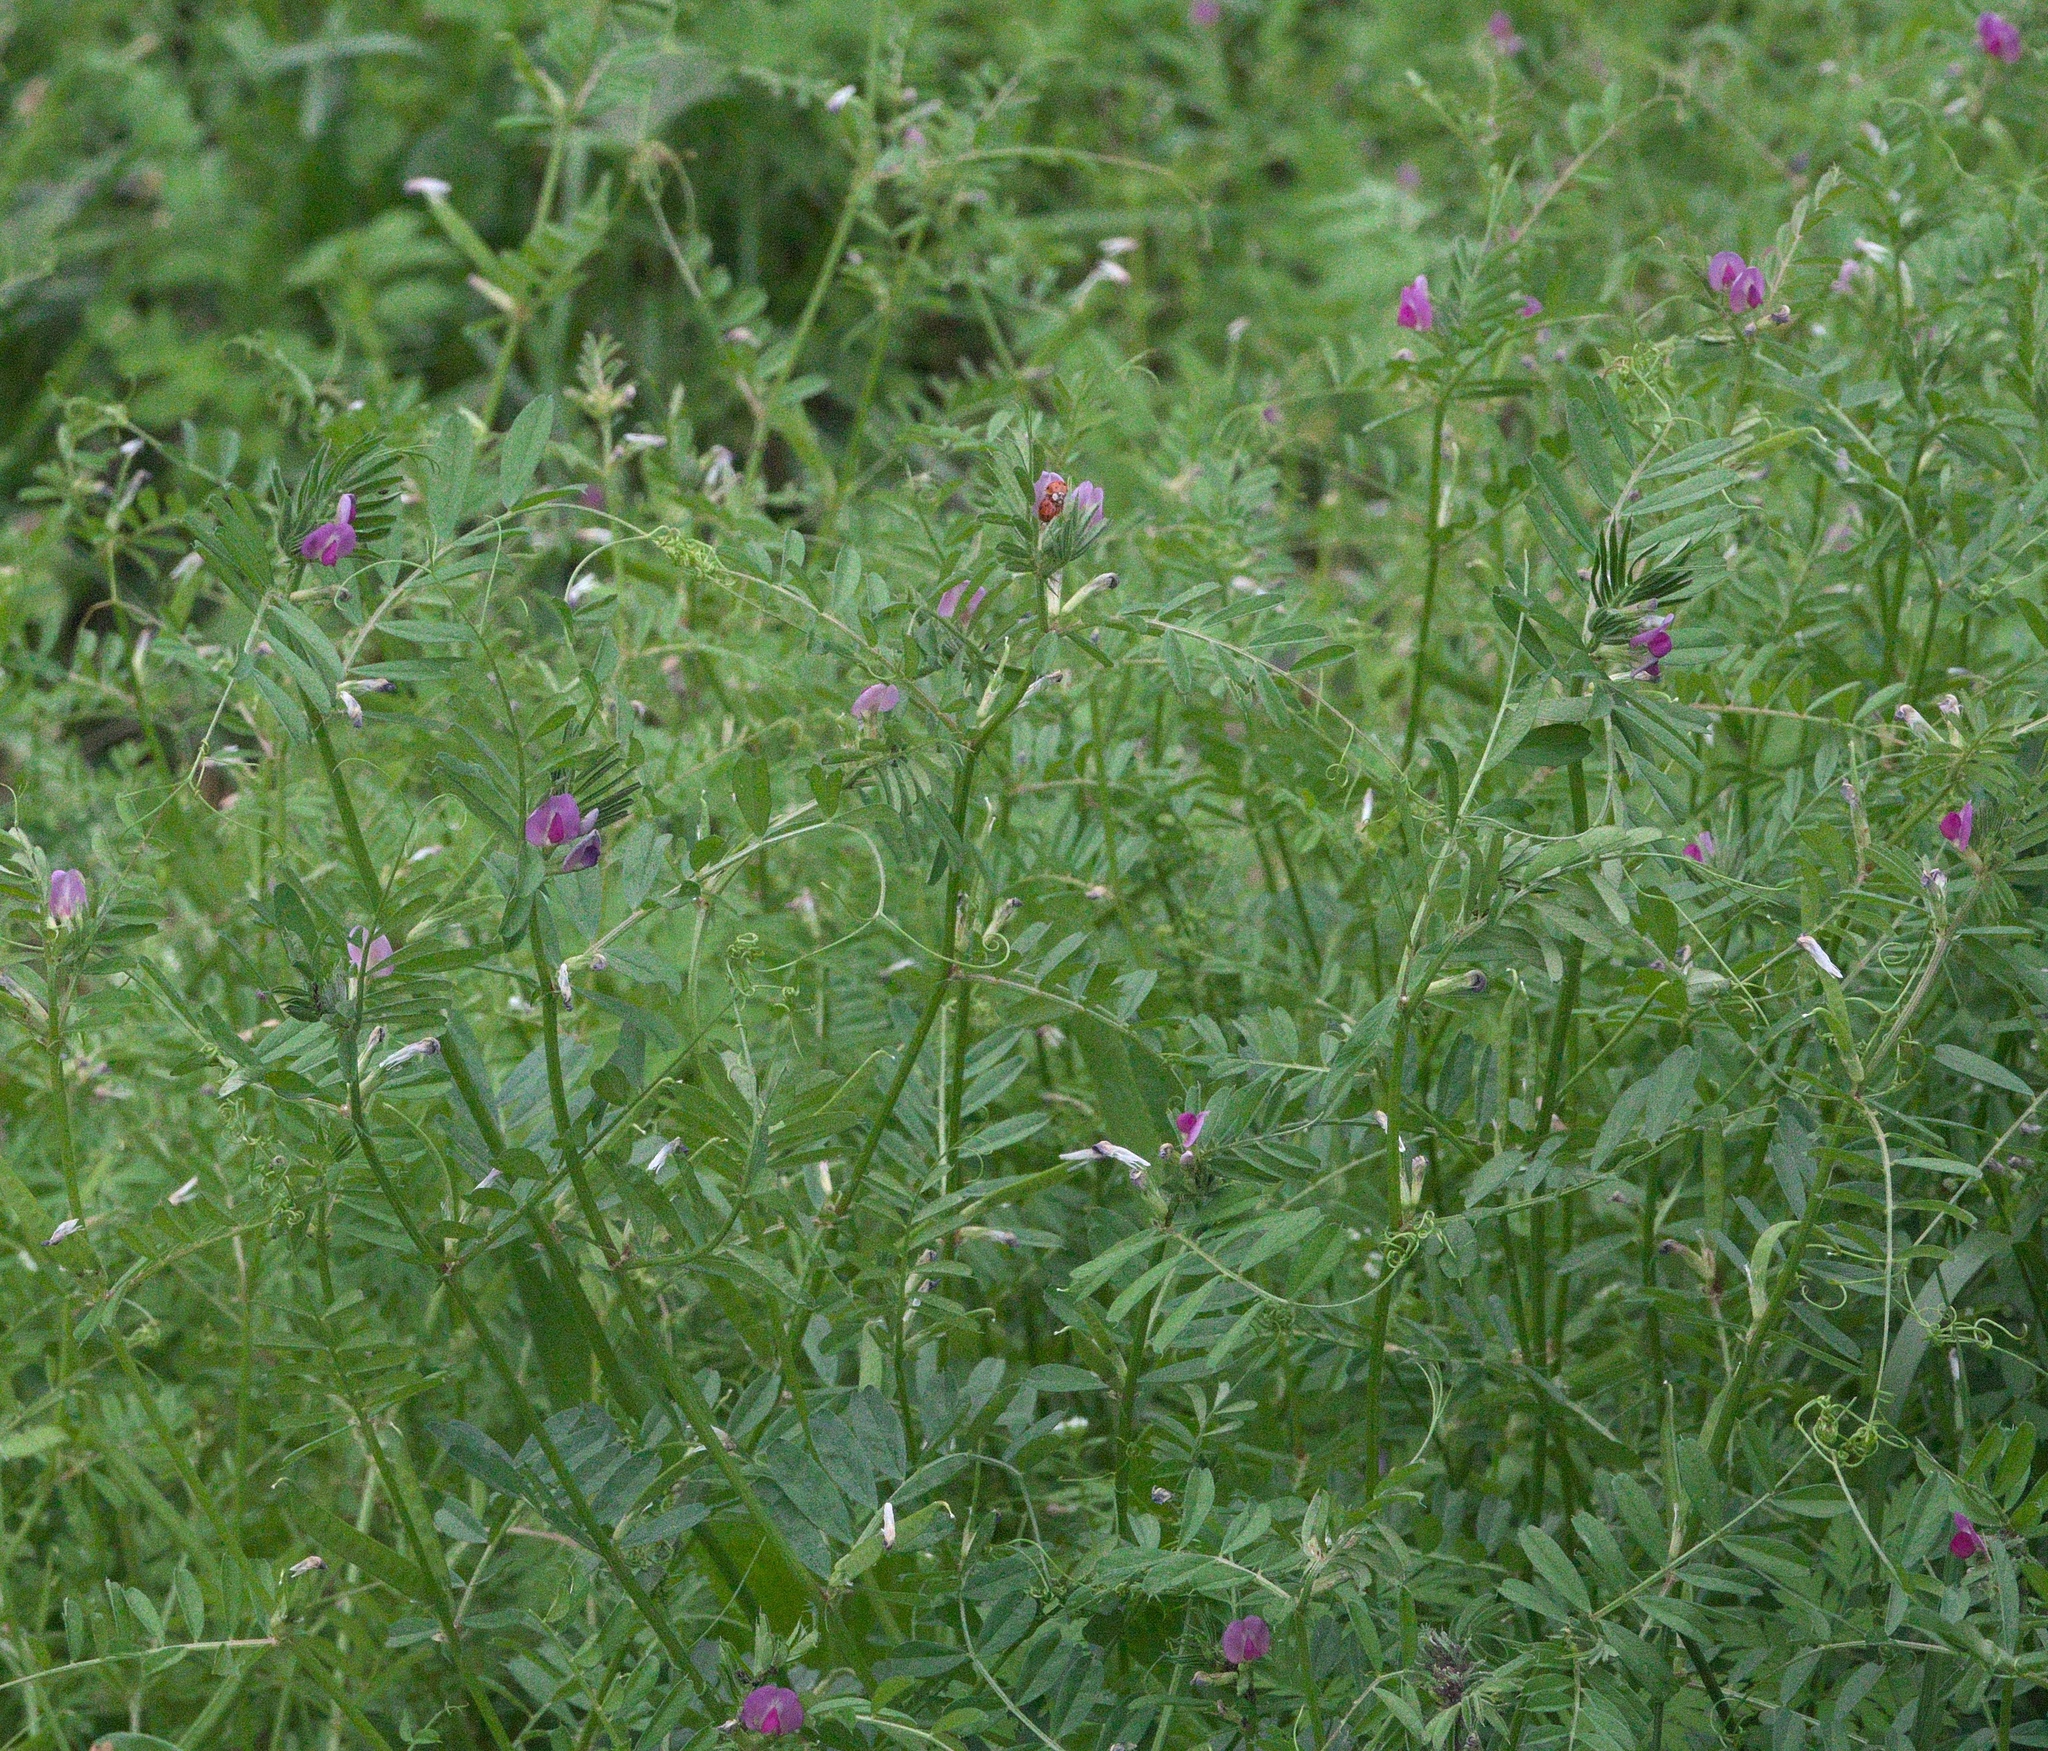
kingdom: Plantae
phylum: Tracheophyta
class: Magnoliopsida
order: Fabales
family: Fabaceae
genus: Vicia
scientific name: Vicia sativa
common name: Garden vetch
